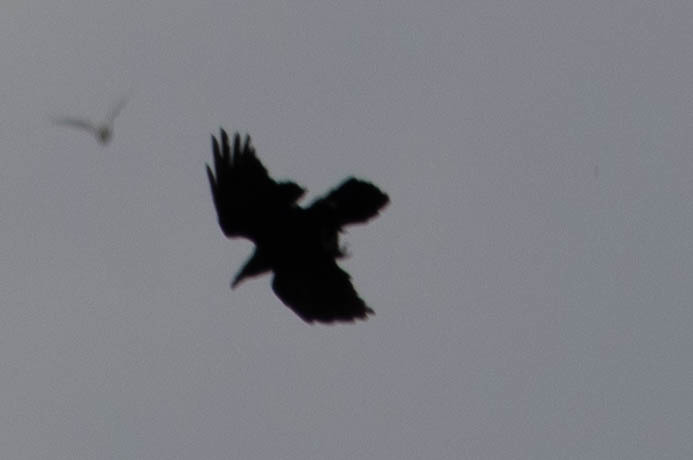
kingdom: Animalia
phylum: Chordata
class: Aves
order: Passeriformes
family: Corvidae
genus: Corvus
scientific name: Corvus corax
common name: Common raven
